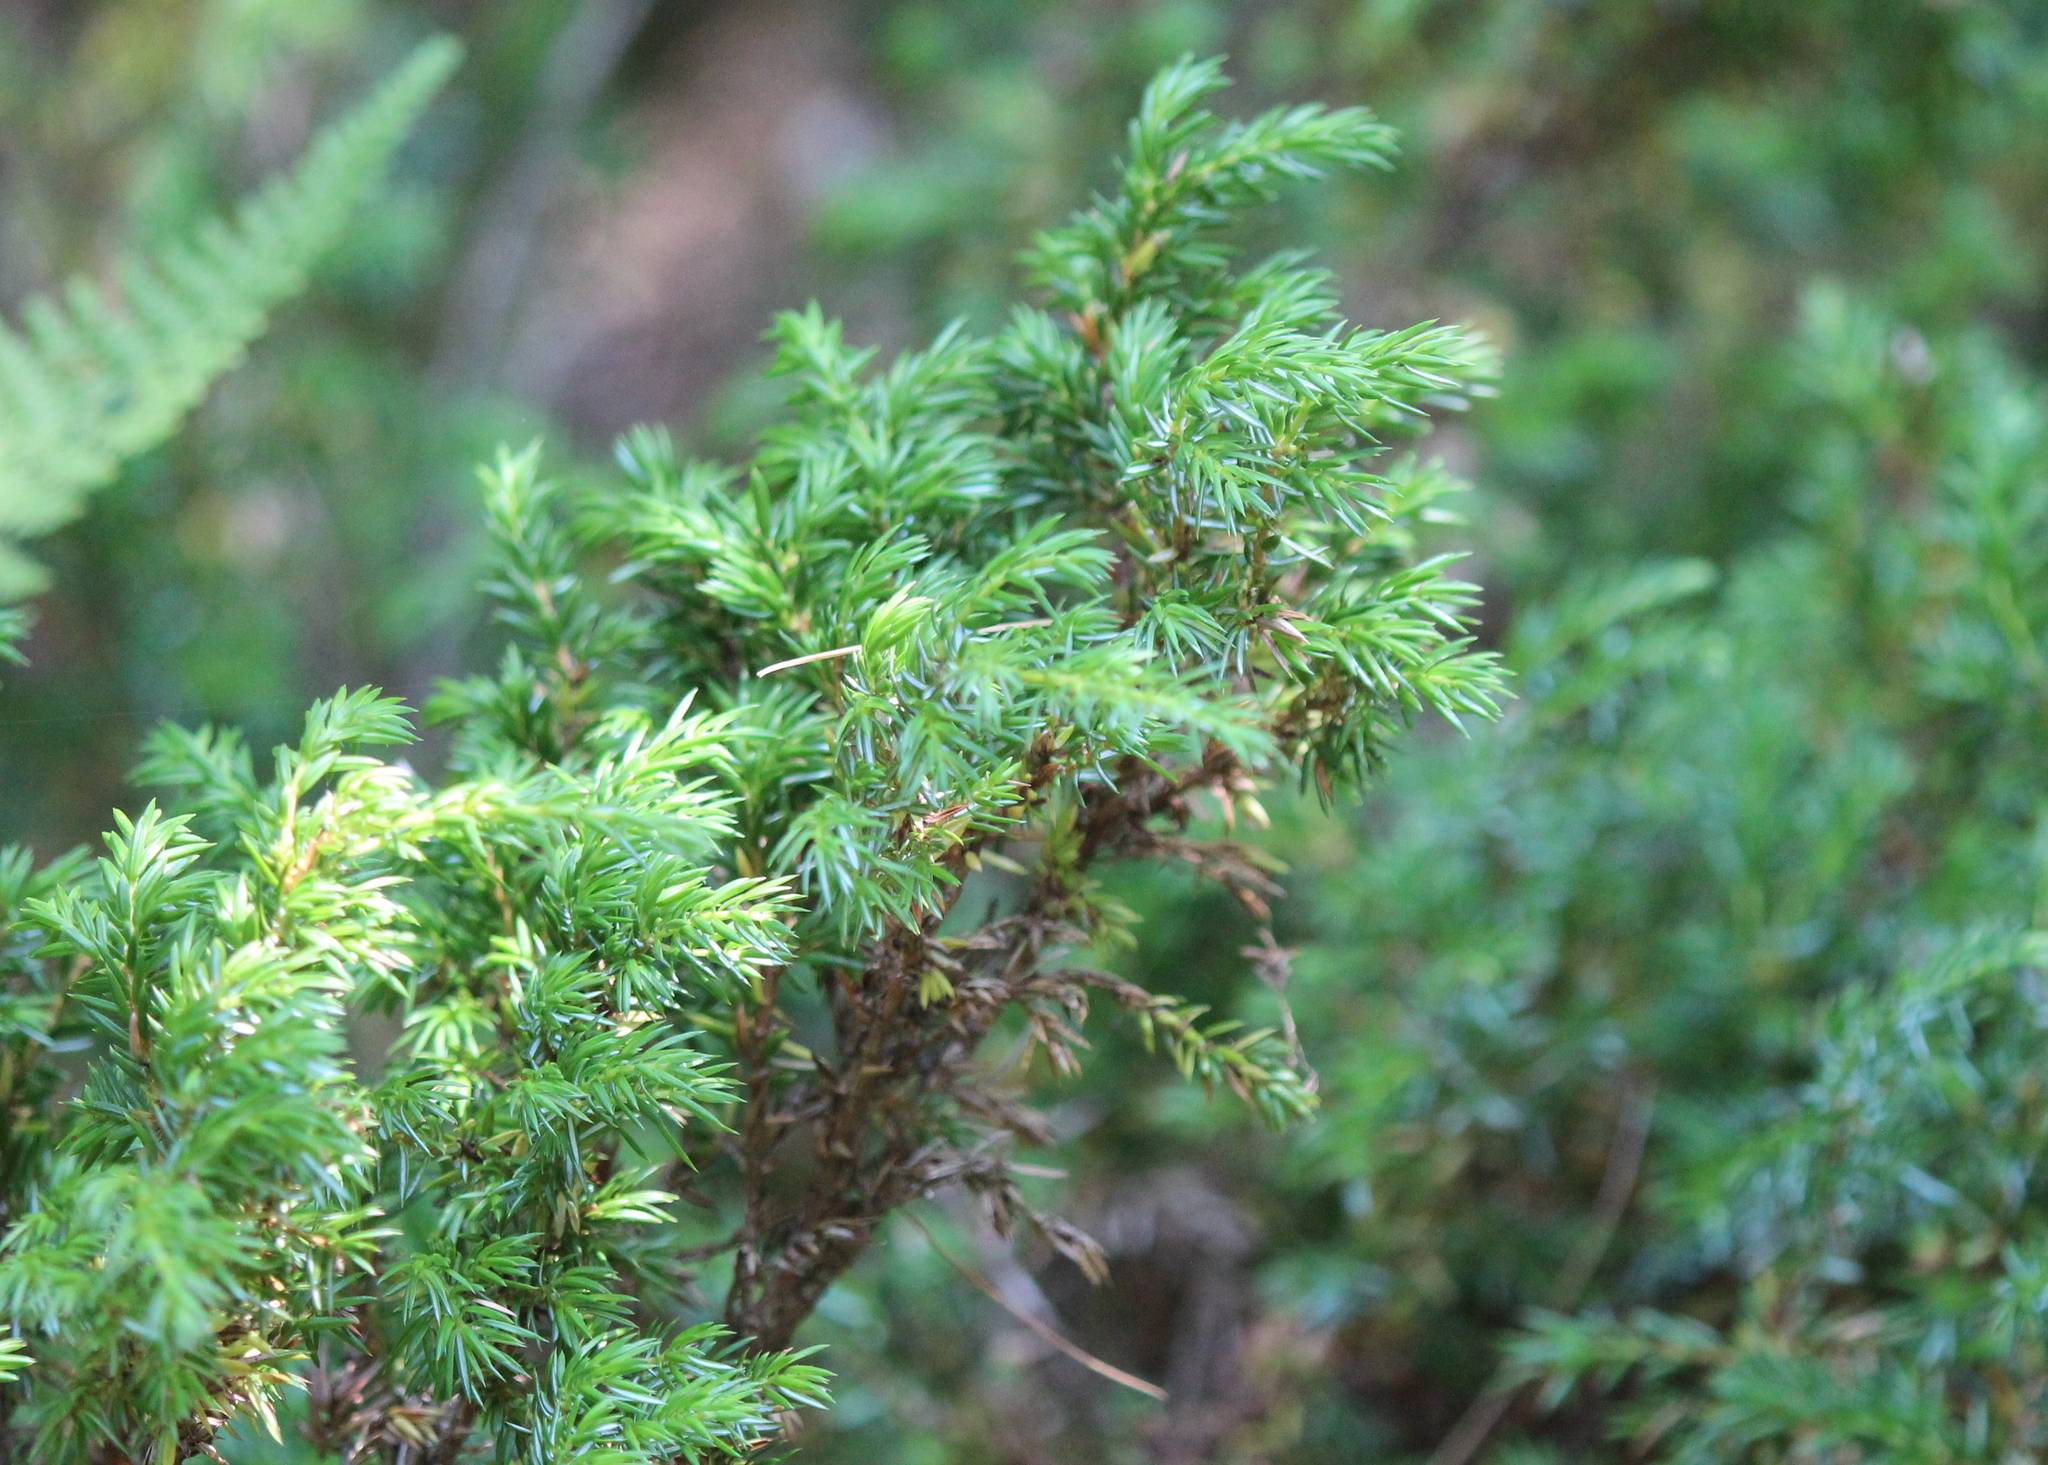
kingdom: Plantae
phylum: Tracheophyta
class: Pinopsida
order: Pinales
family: Cupressaceae
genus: Juniperus
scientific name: Juniperus communis
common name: Common juniper
